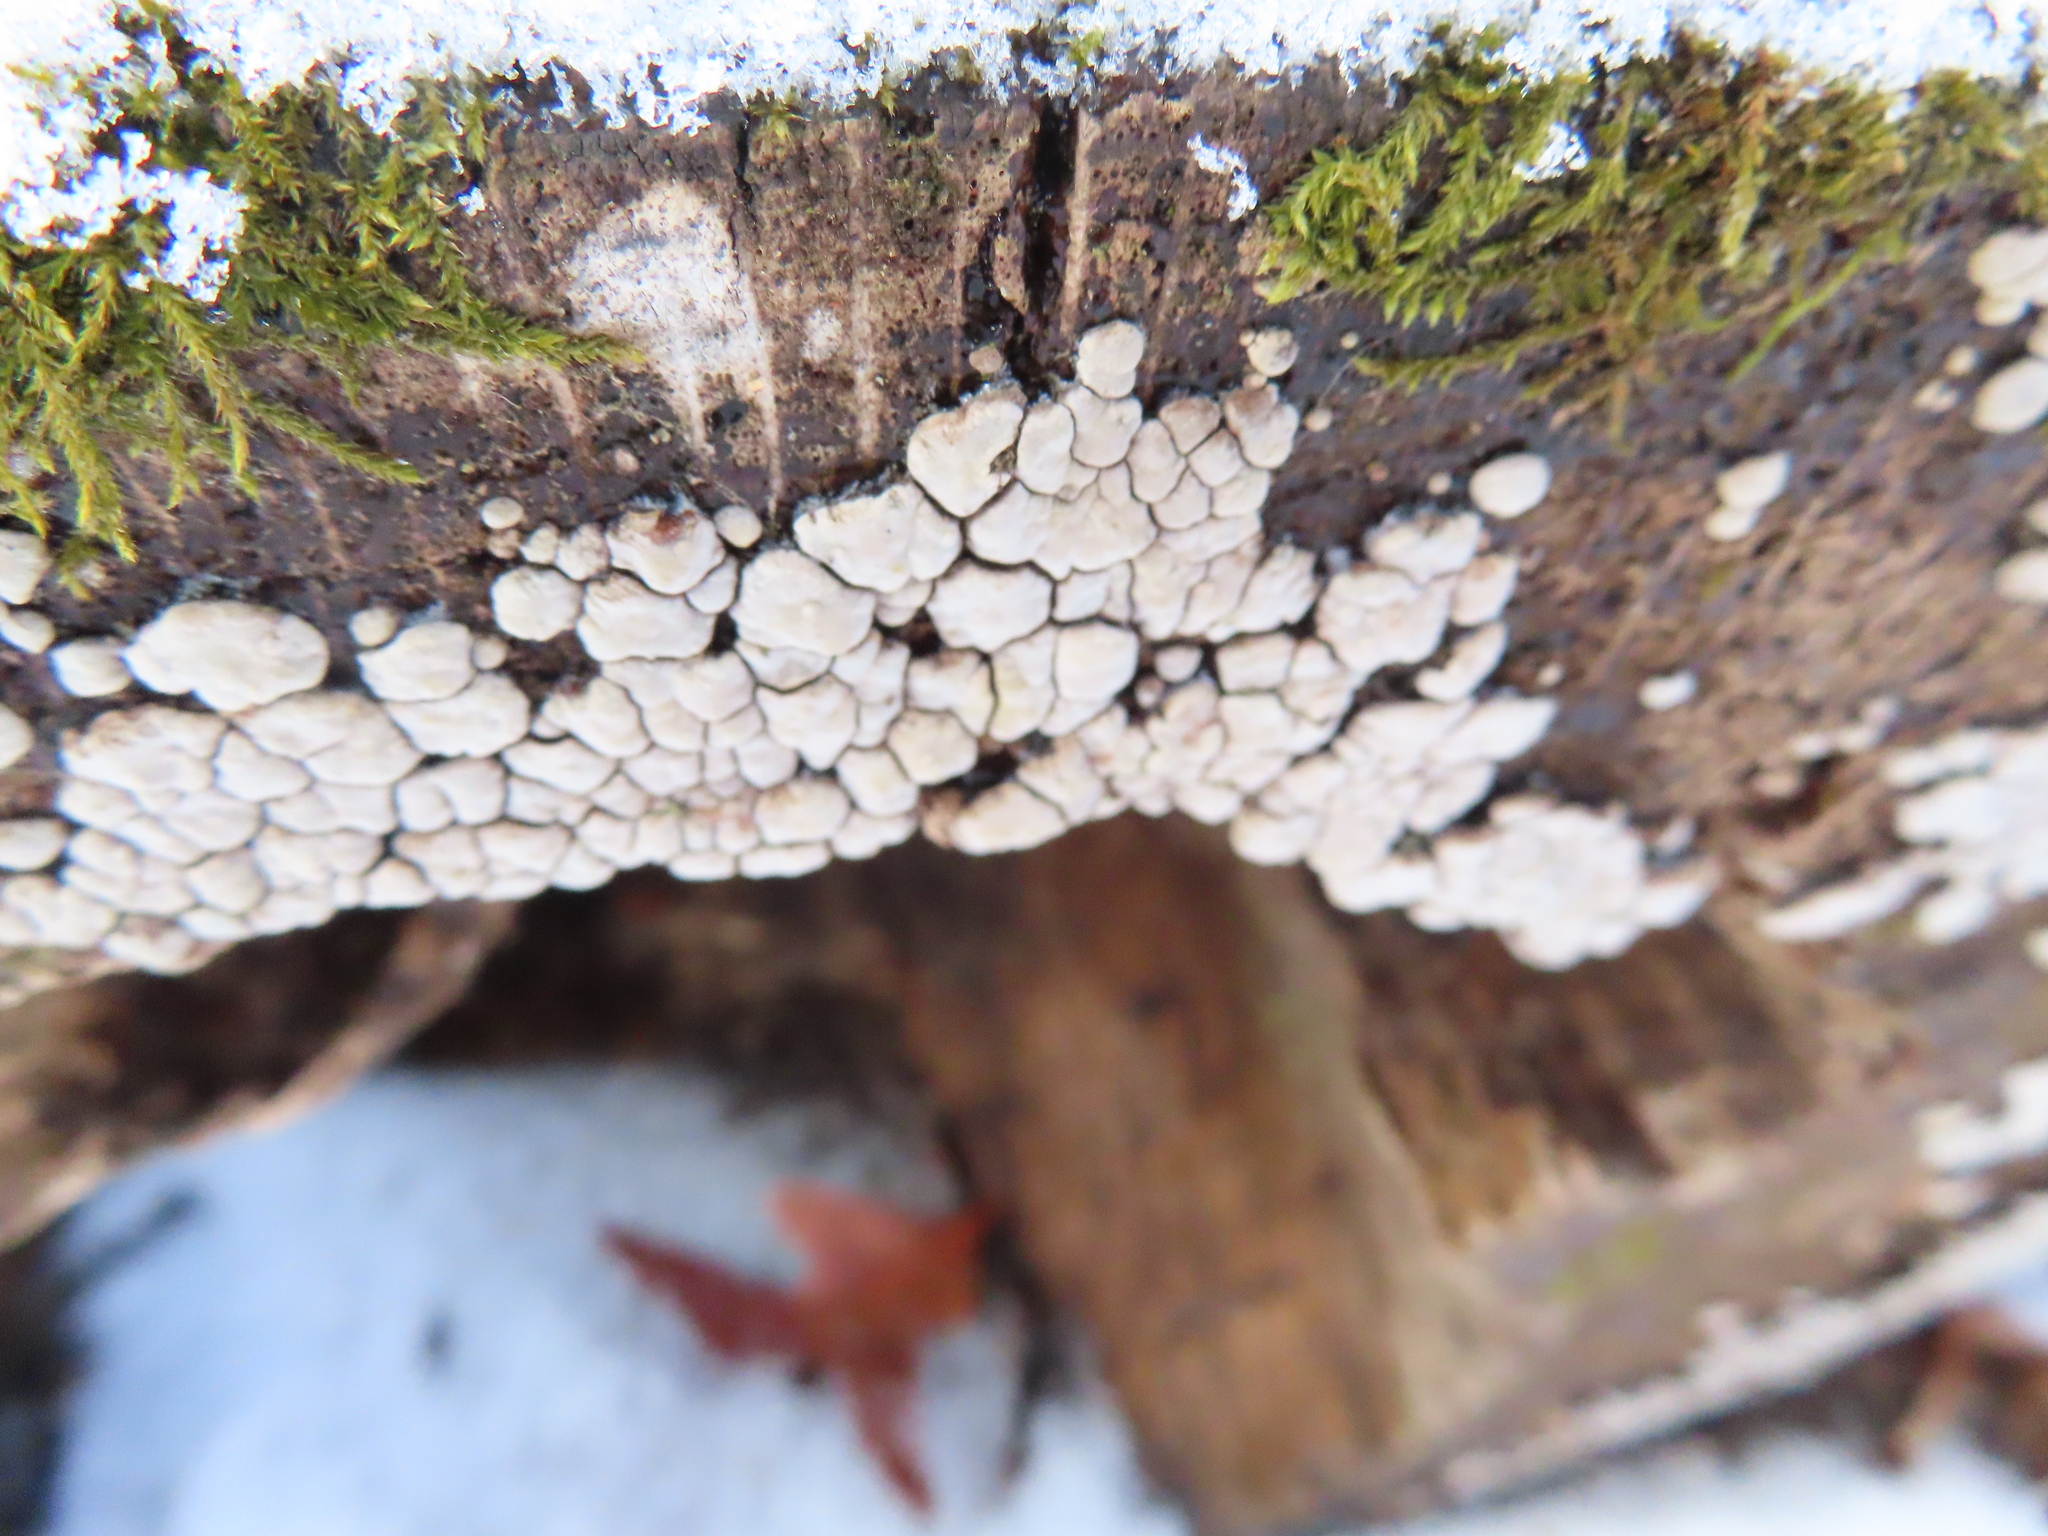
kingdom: Fungi
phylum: Basidiomycota
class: Agaricomycetes
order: Russulales
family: Stereaceae
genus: Xylobolus
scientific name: Xylobolus frustulatus
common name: Ceramic parchment
